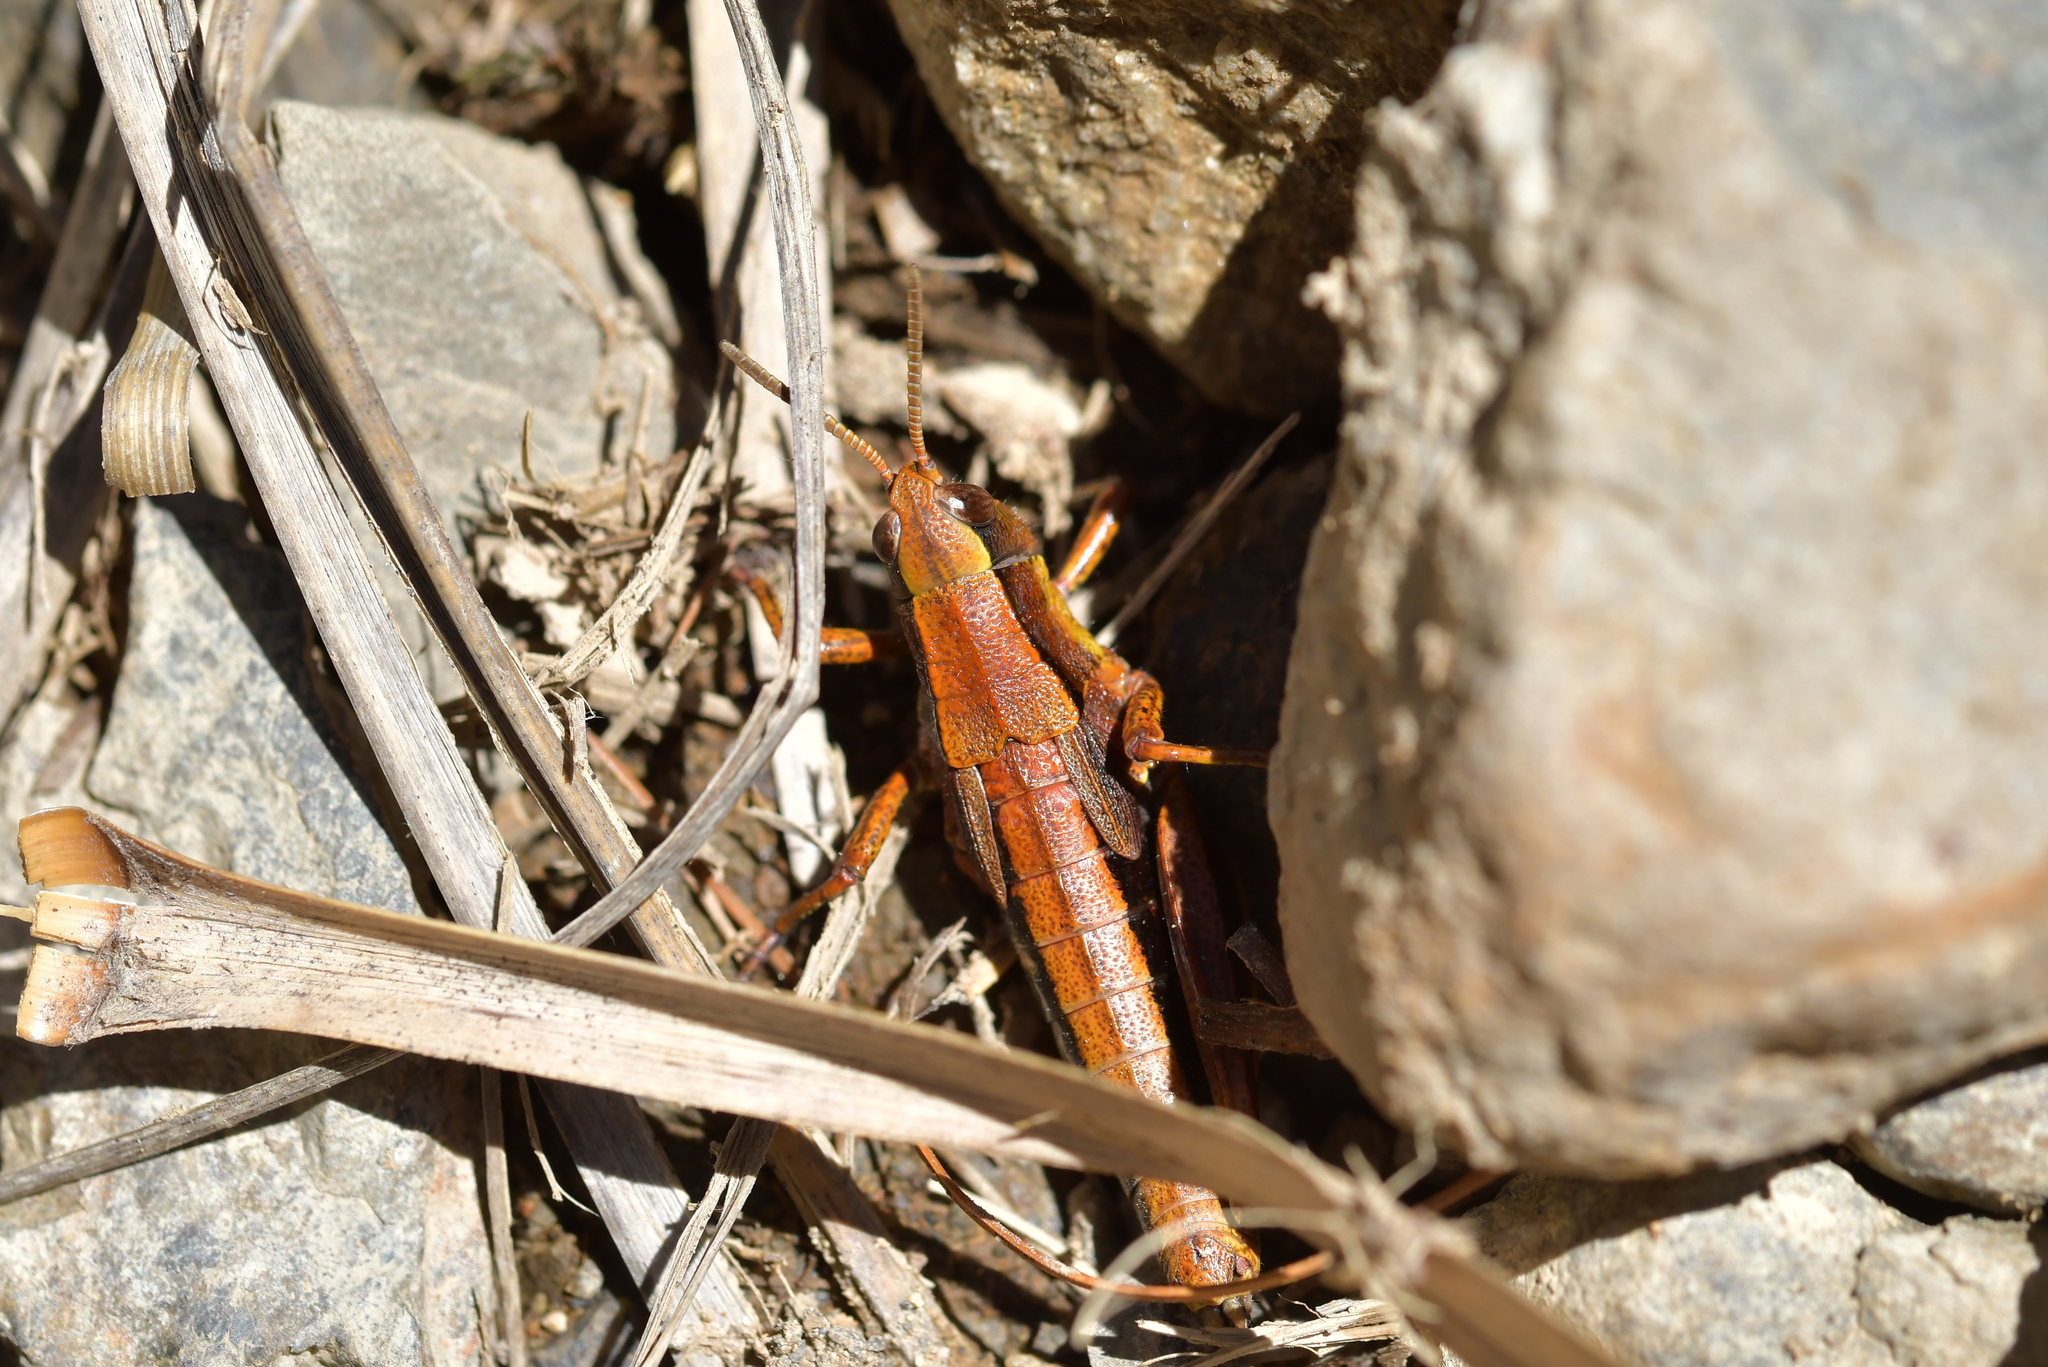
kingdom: Animalia
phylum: Arthropoda
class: Insecta
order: Orthoptera
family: Acrididae
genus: Sigaus
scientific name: Sigaus piliferus
